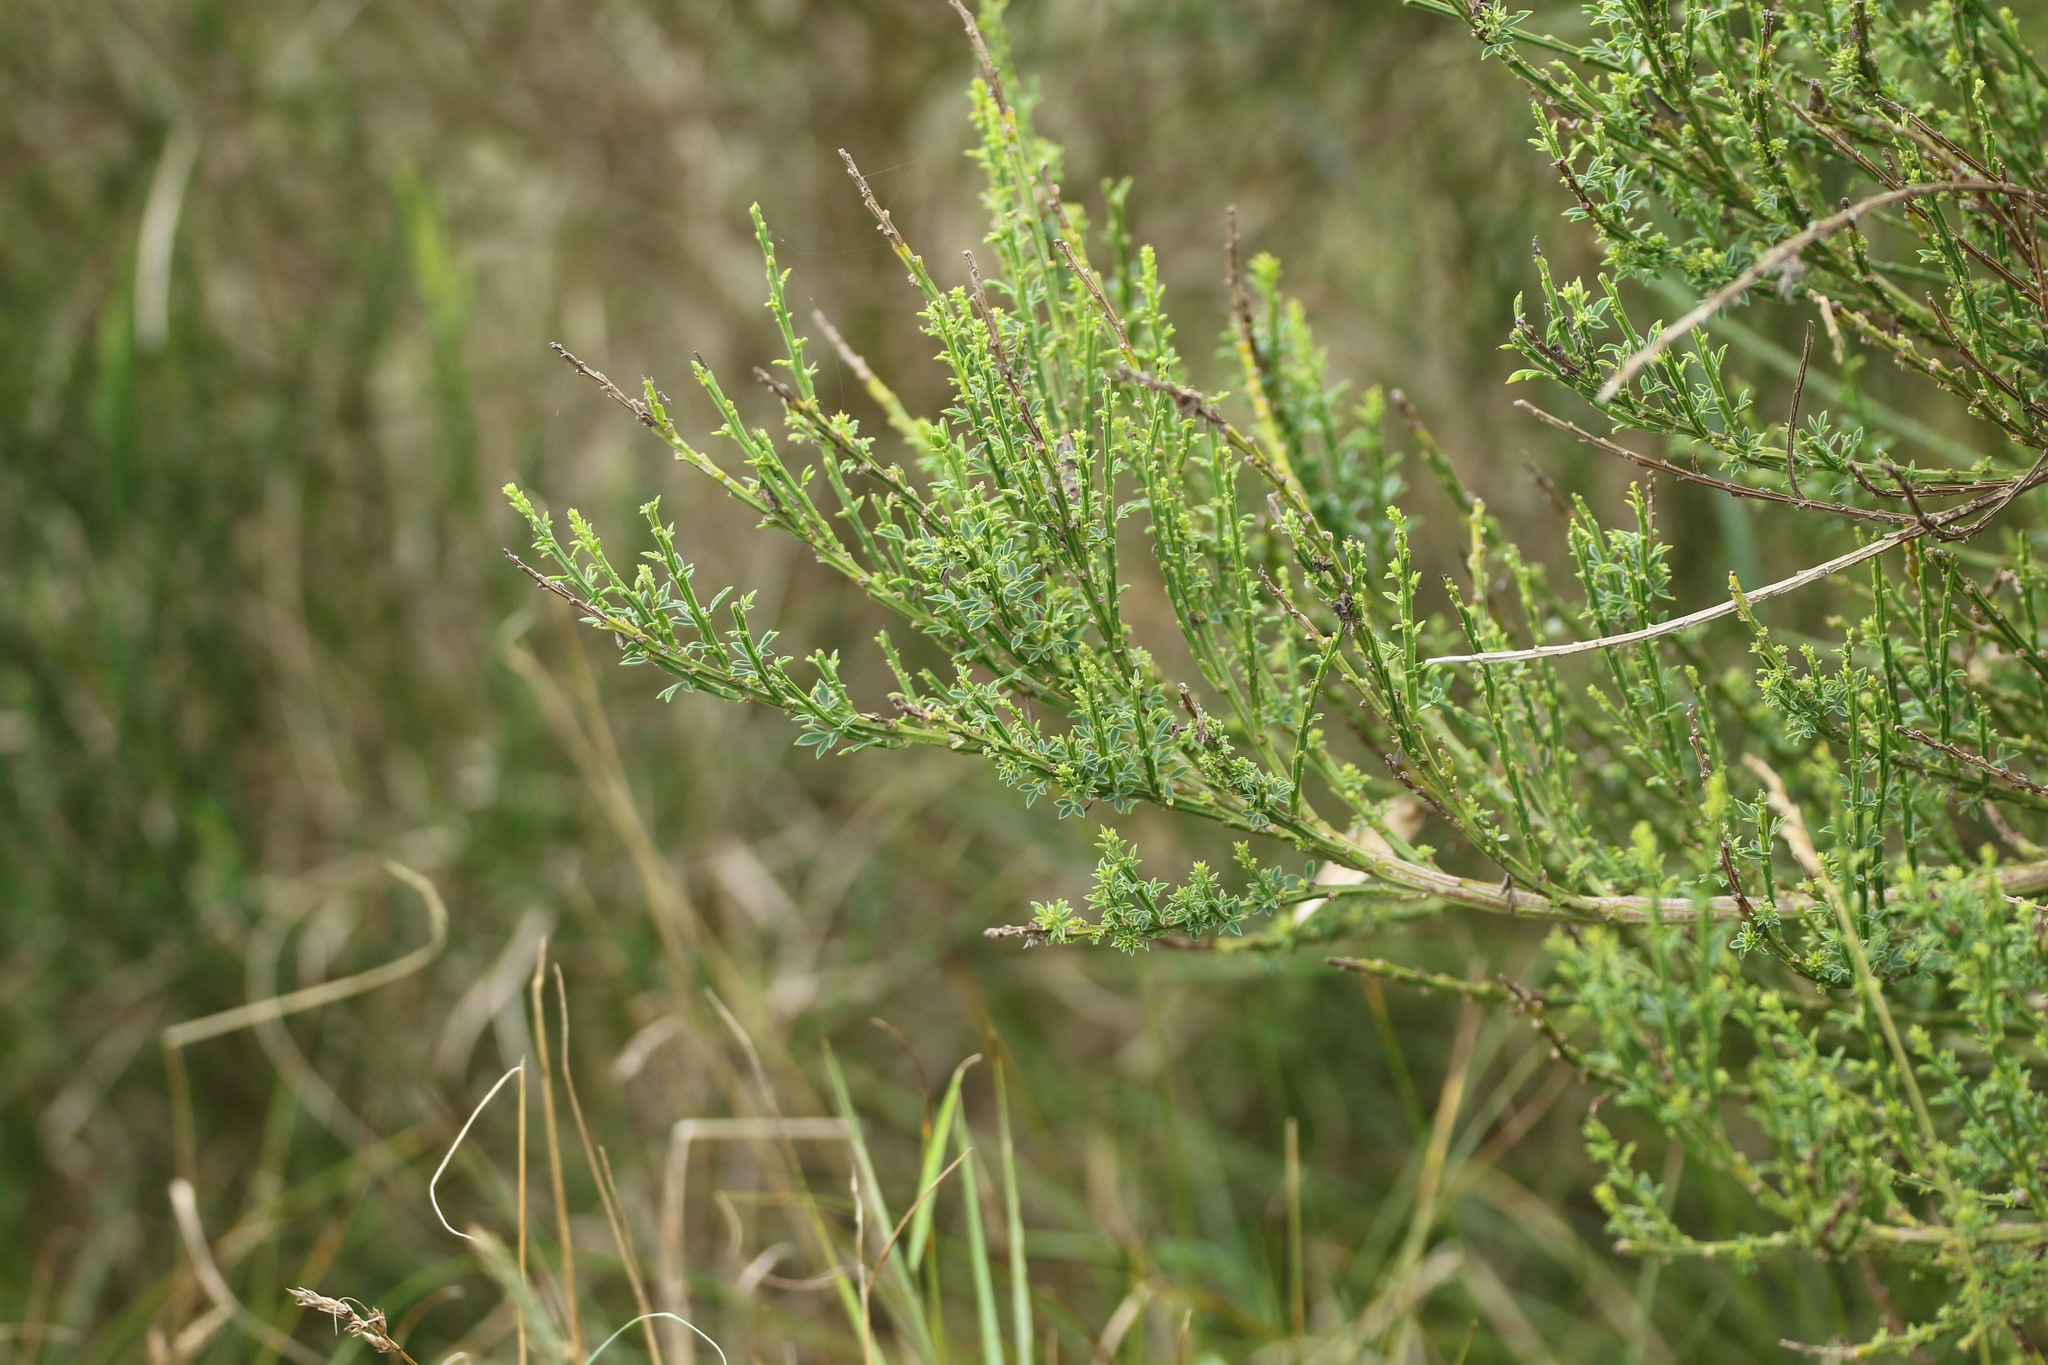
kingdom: Plantae
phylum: Tracheophyta
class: Magnoliopsida
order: Fabales
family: Fabaceae
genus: Cytisus
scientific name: Cytisus scoparius
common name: Scotch broom
